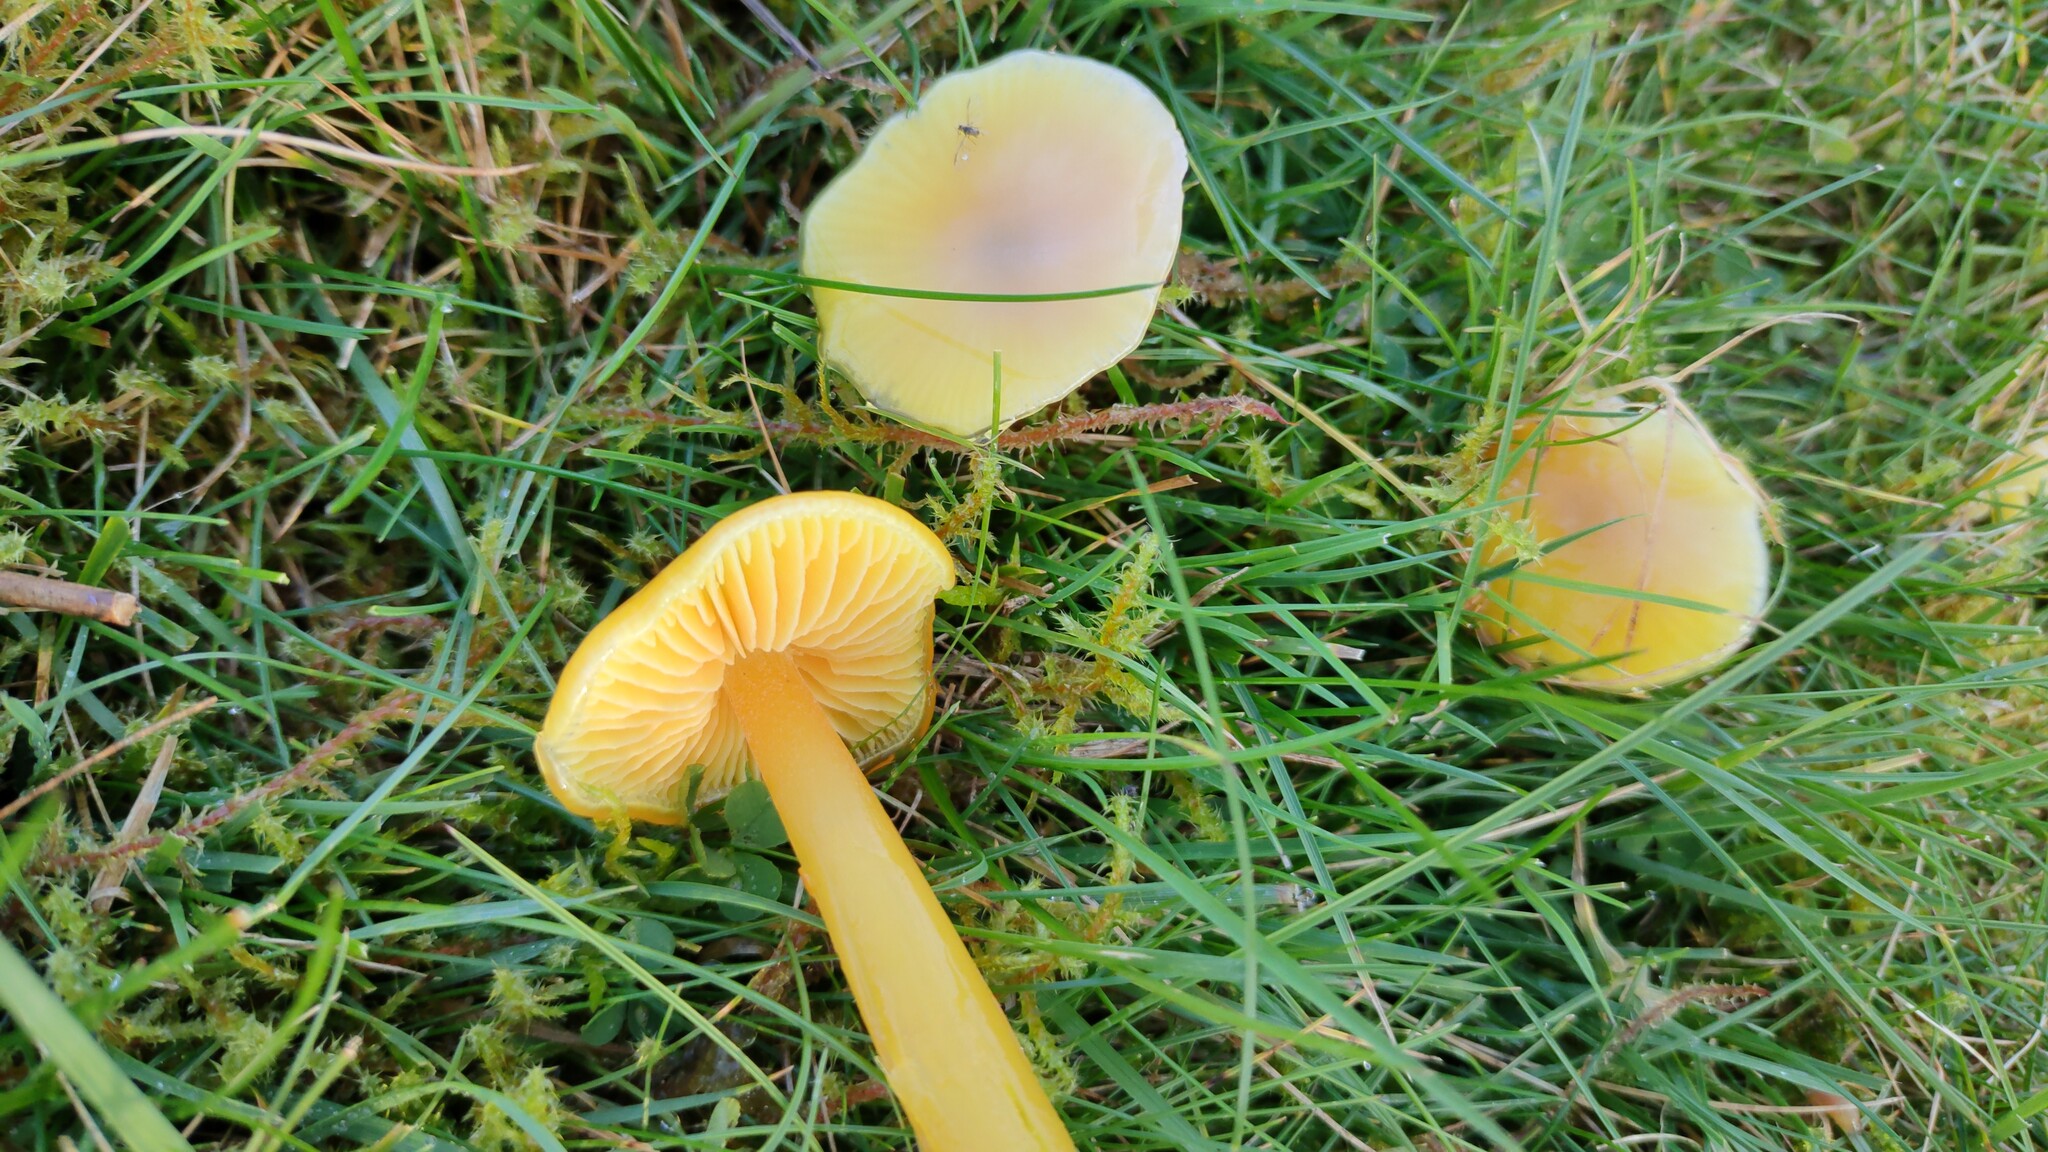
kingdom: Fungi
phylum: Basidiomycota
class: Agaricomycetes
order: Agaricales
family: Hygrophoraceae
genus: Hygrocybe
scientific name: Hygrocybe chlorophana
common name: Golden waxcap
